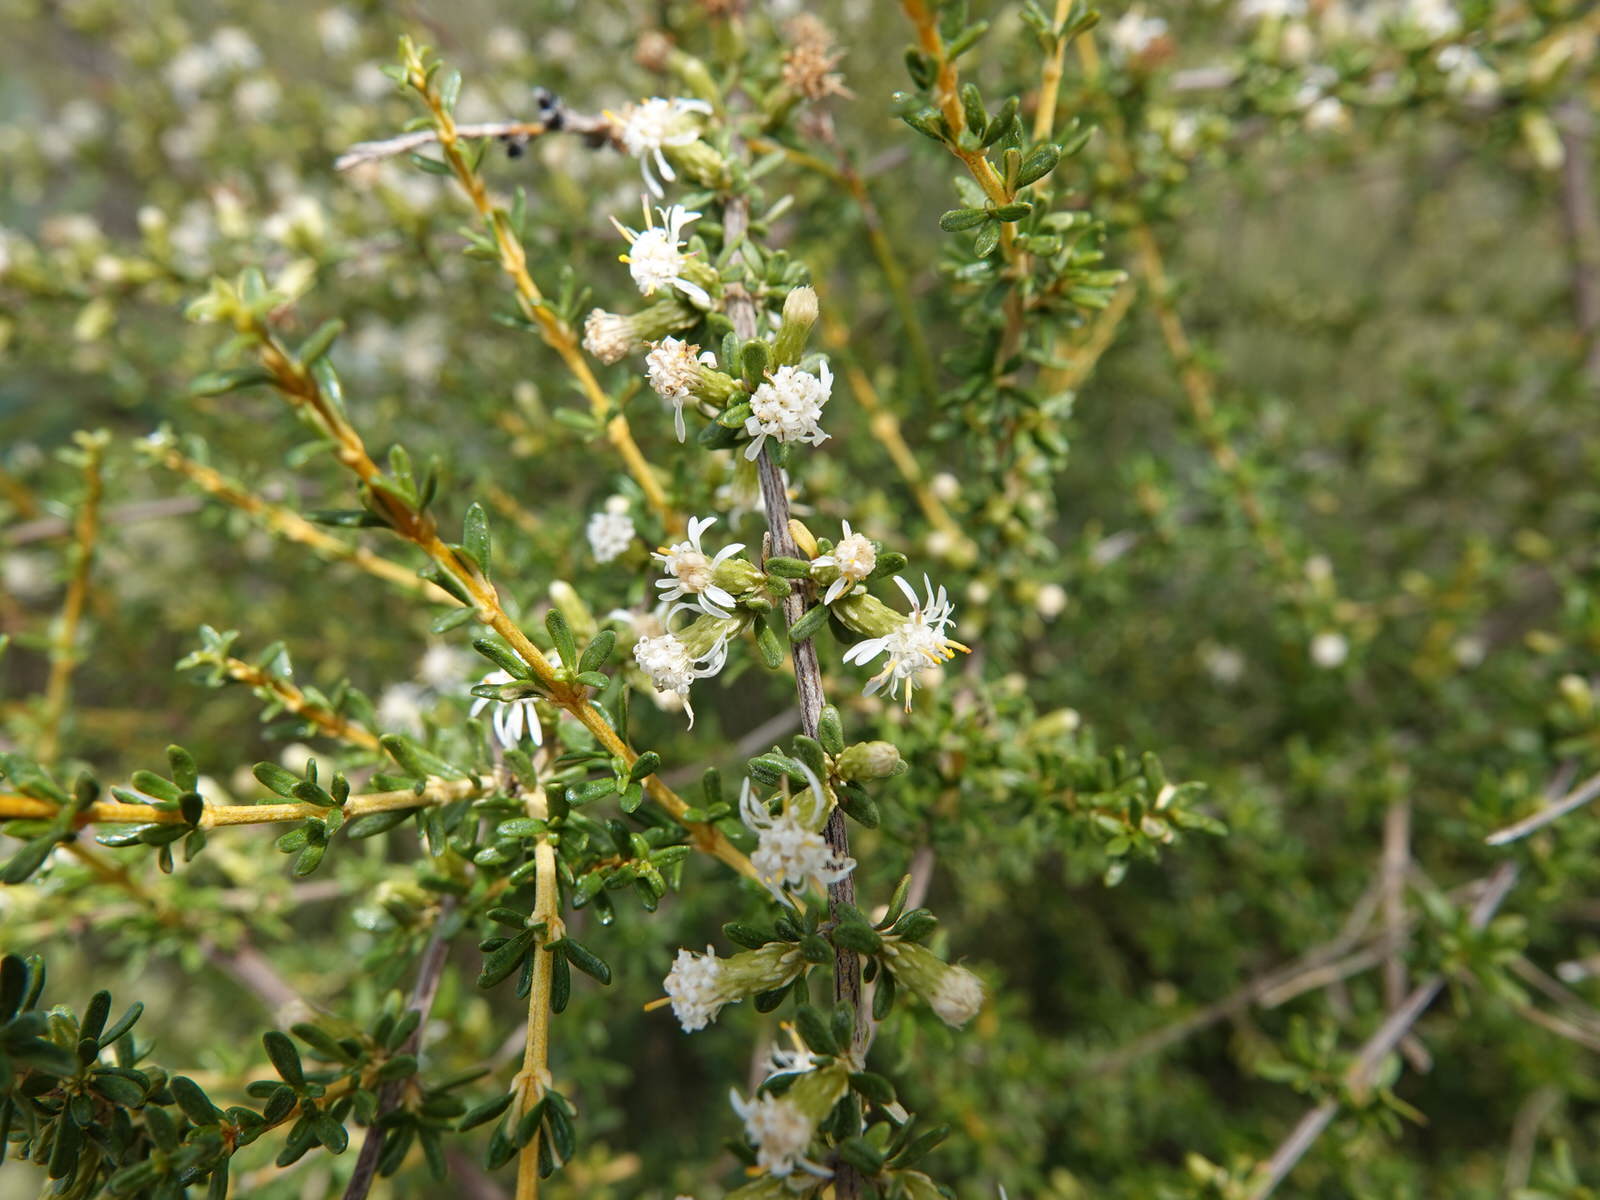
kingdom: Plantae
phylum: Tracheophyta
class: Magnoliopsida
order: Asterales
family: Asteraceae
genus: Olearia
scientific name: Olearia solandri
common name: Coastal daisybush
